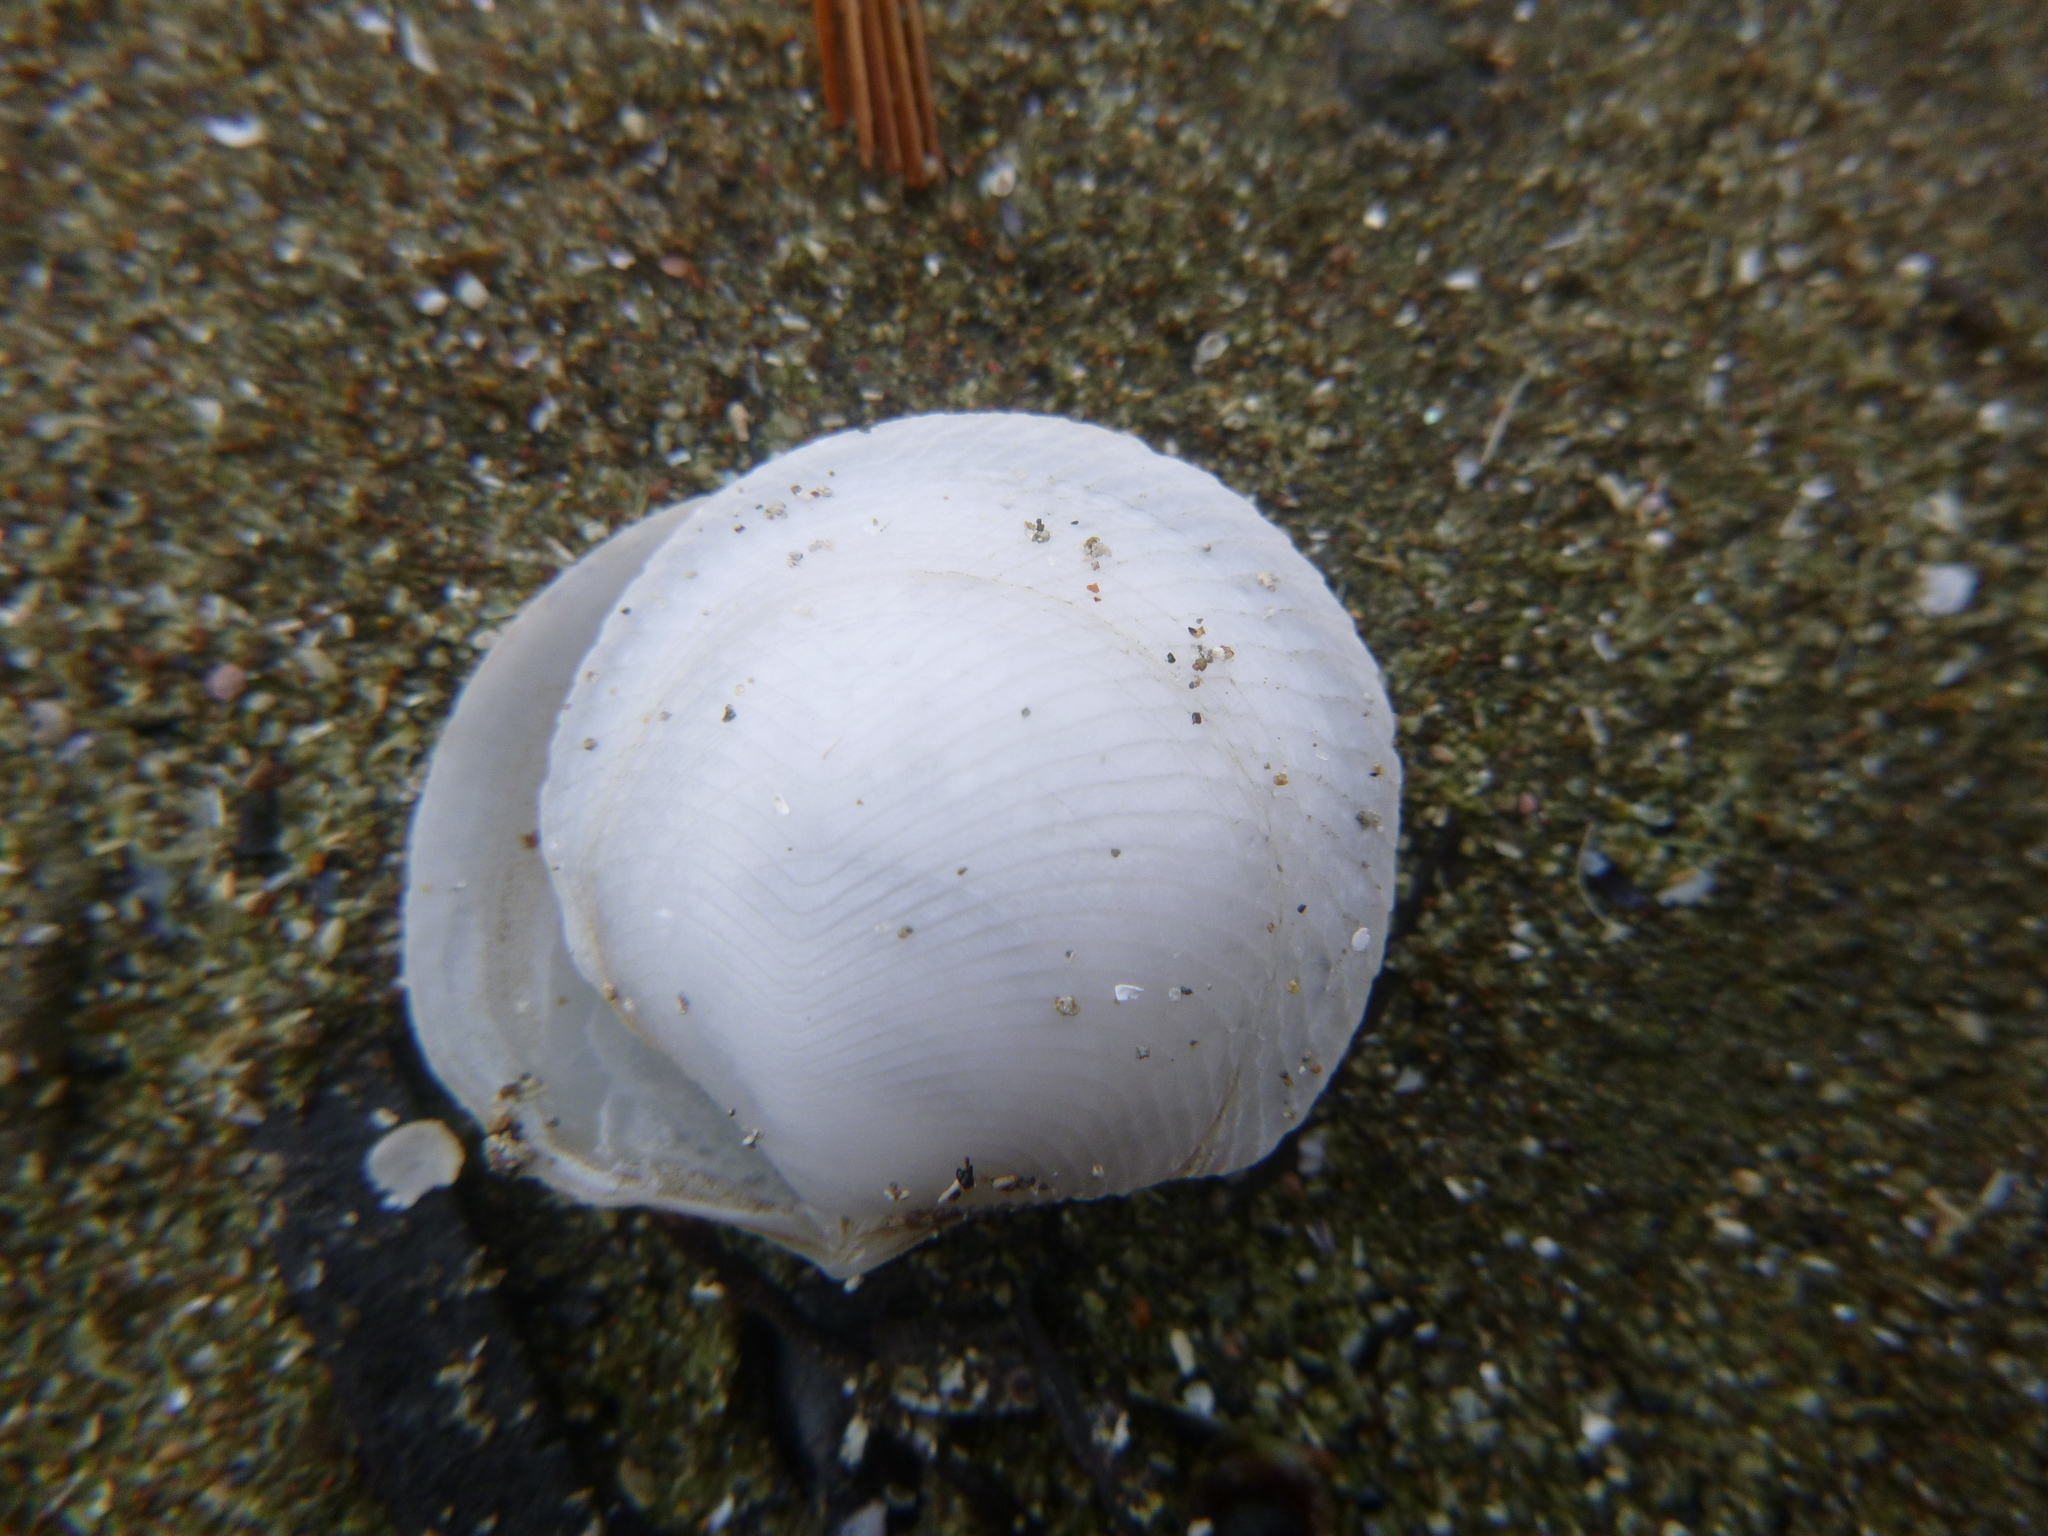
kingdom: Animalia
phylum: Mollusca
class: Bivalvia
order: Lucinida
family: Lucinidae
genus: Divalucina
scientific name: Divalucina cumingi
